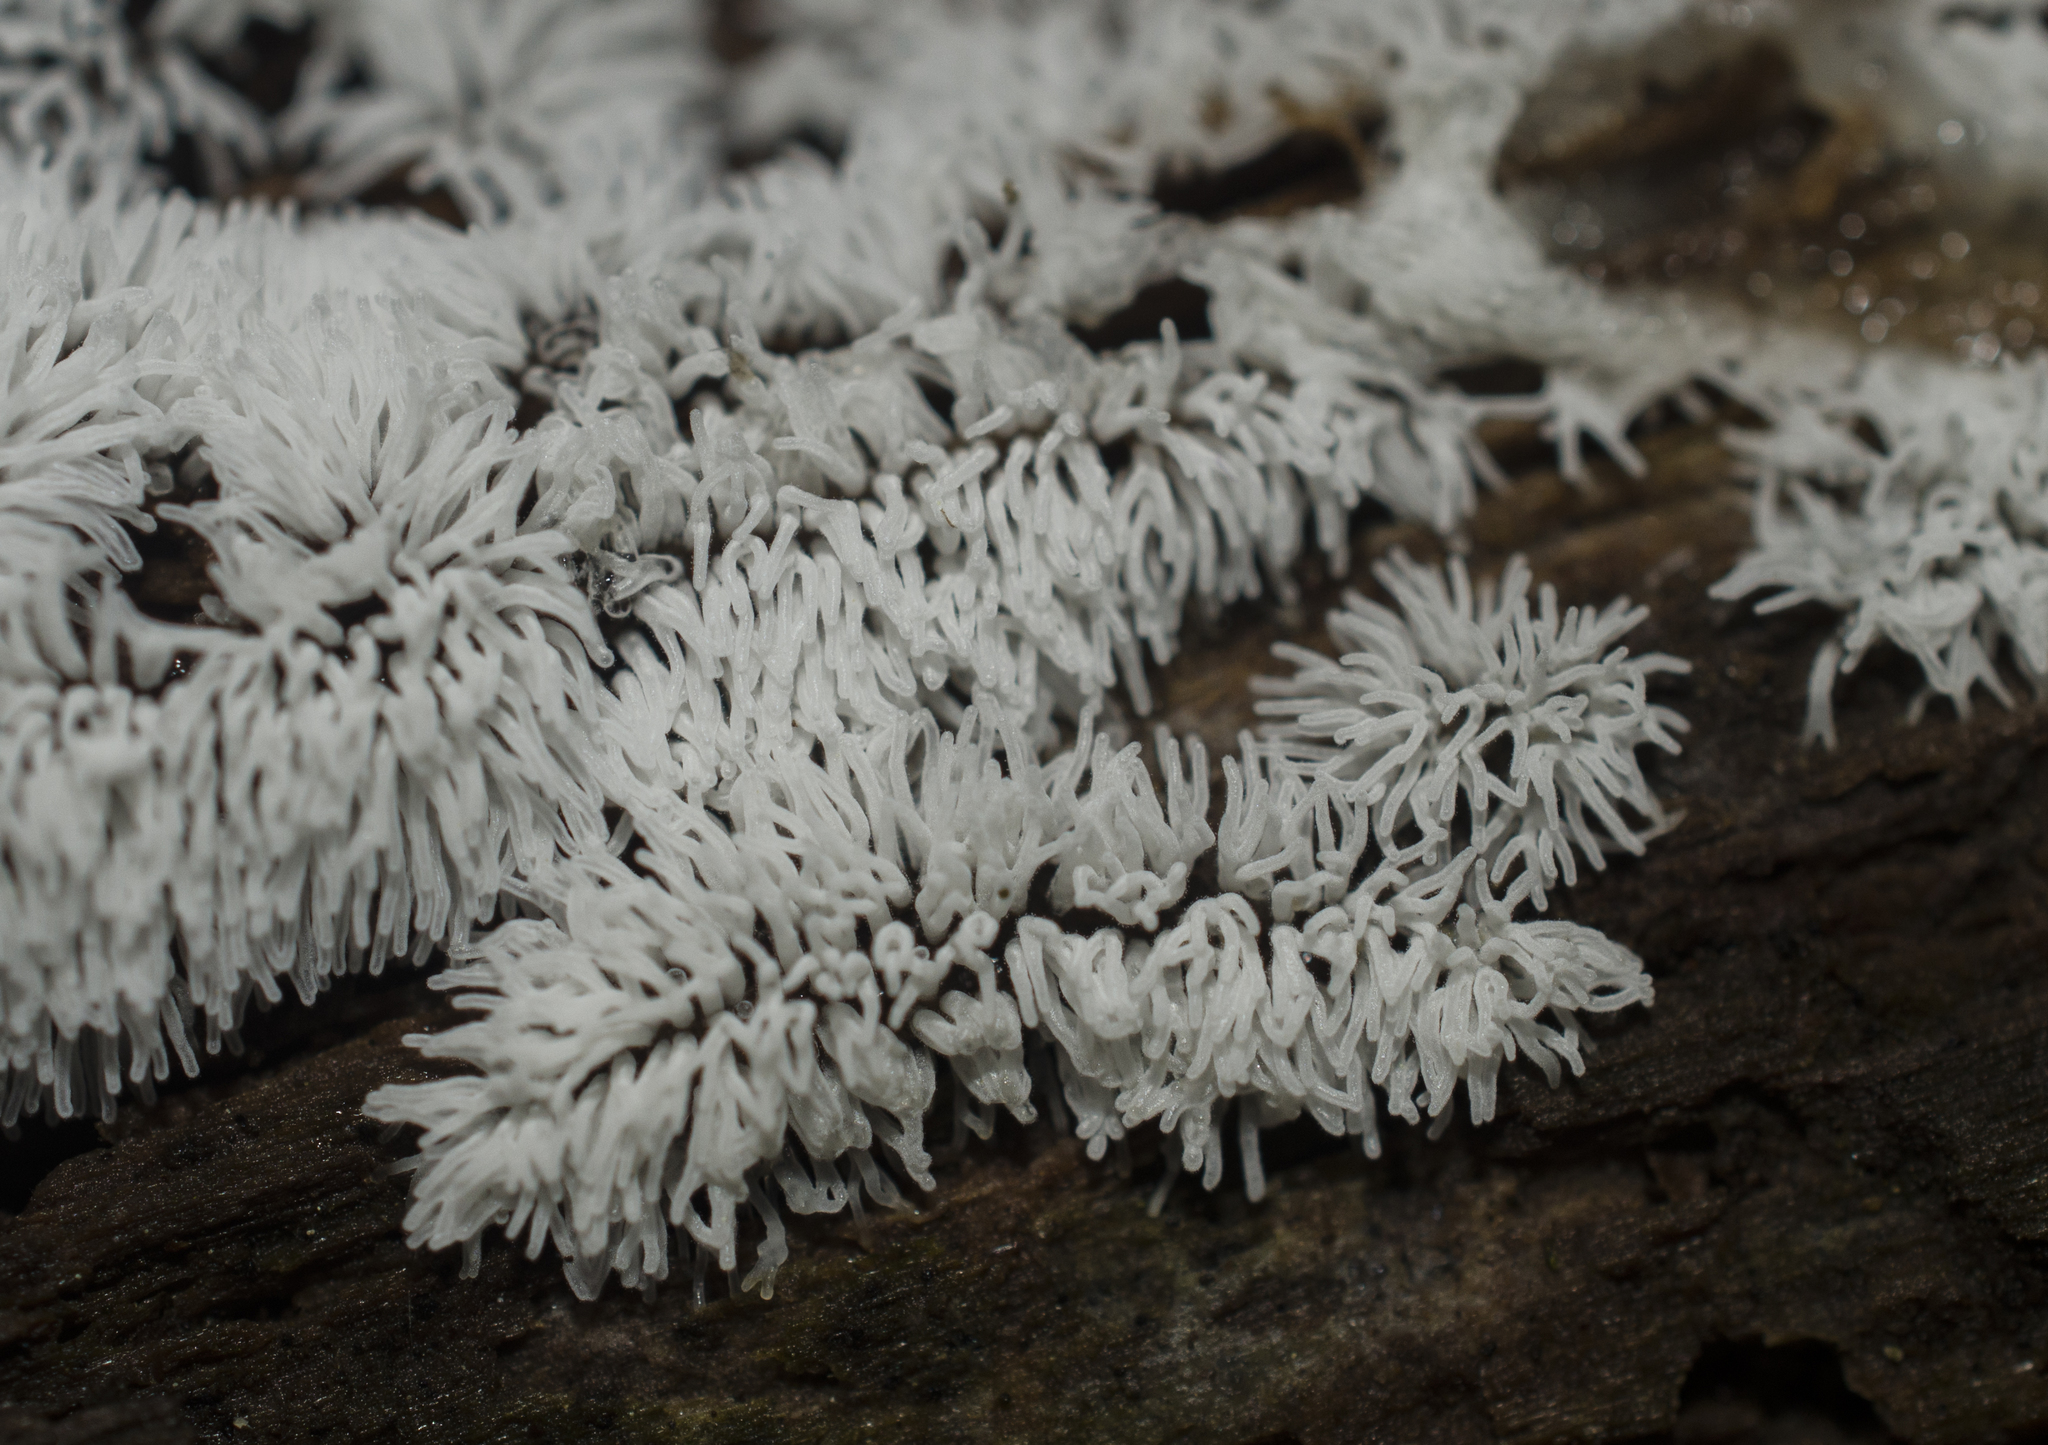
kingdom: Protozoa
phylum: Mycetozoa
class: Protosteliomycetes
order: Ceratiomyxales
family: Ceratiomyxaceae
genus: Ceratiomyxa
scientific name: Ceratiomyxa fruticulosa
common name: Honeycomb coral slime mold
